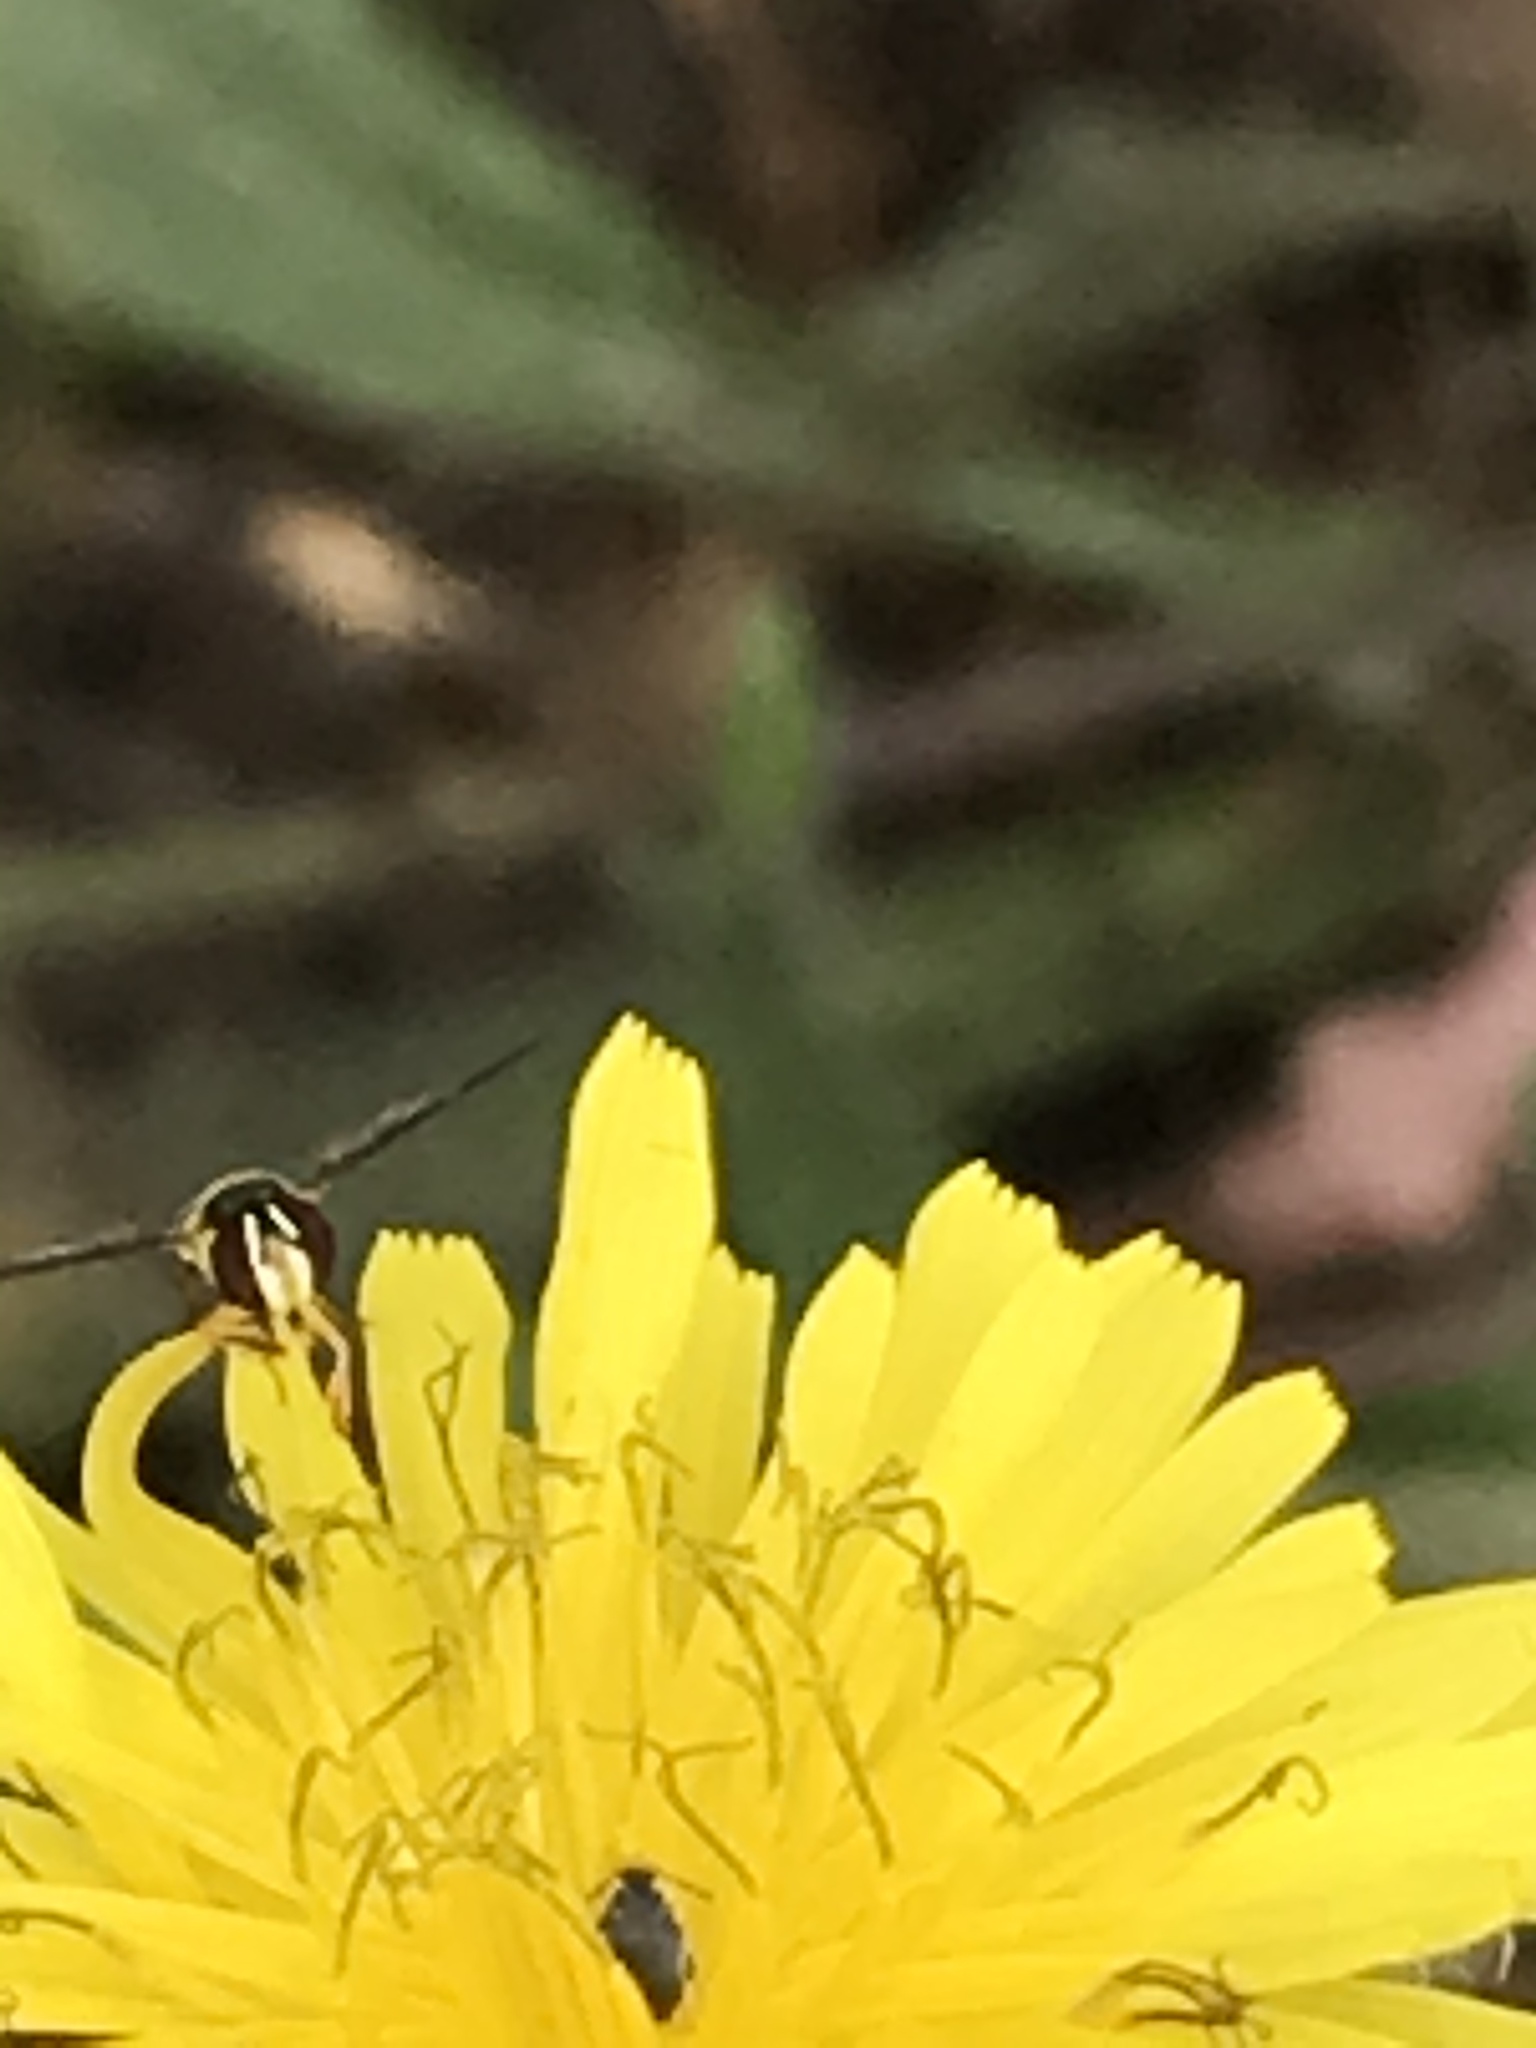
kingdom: Animalia
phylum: Arthropoda
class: Insecta
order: Diptera
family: Syrphidae
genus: Allograpta
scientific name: Allograpta obliqua
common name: Common oblique syrphid
